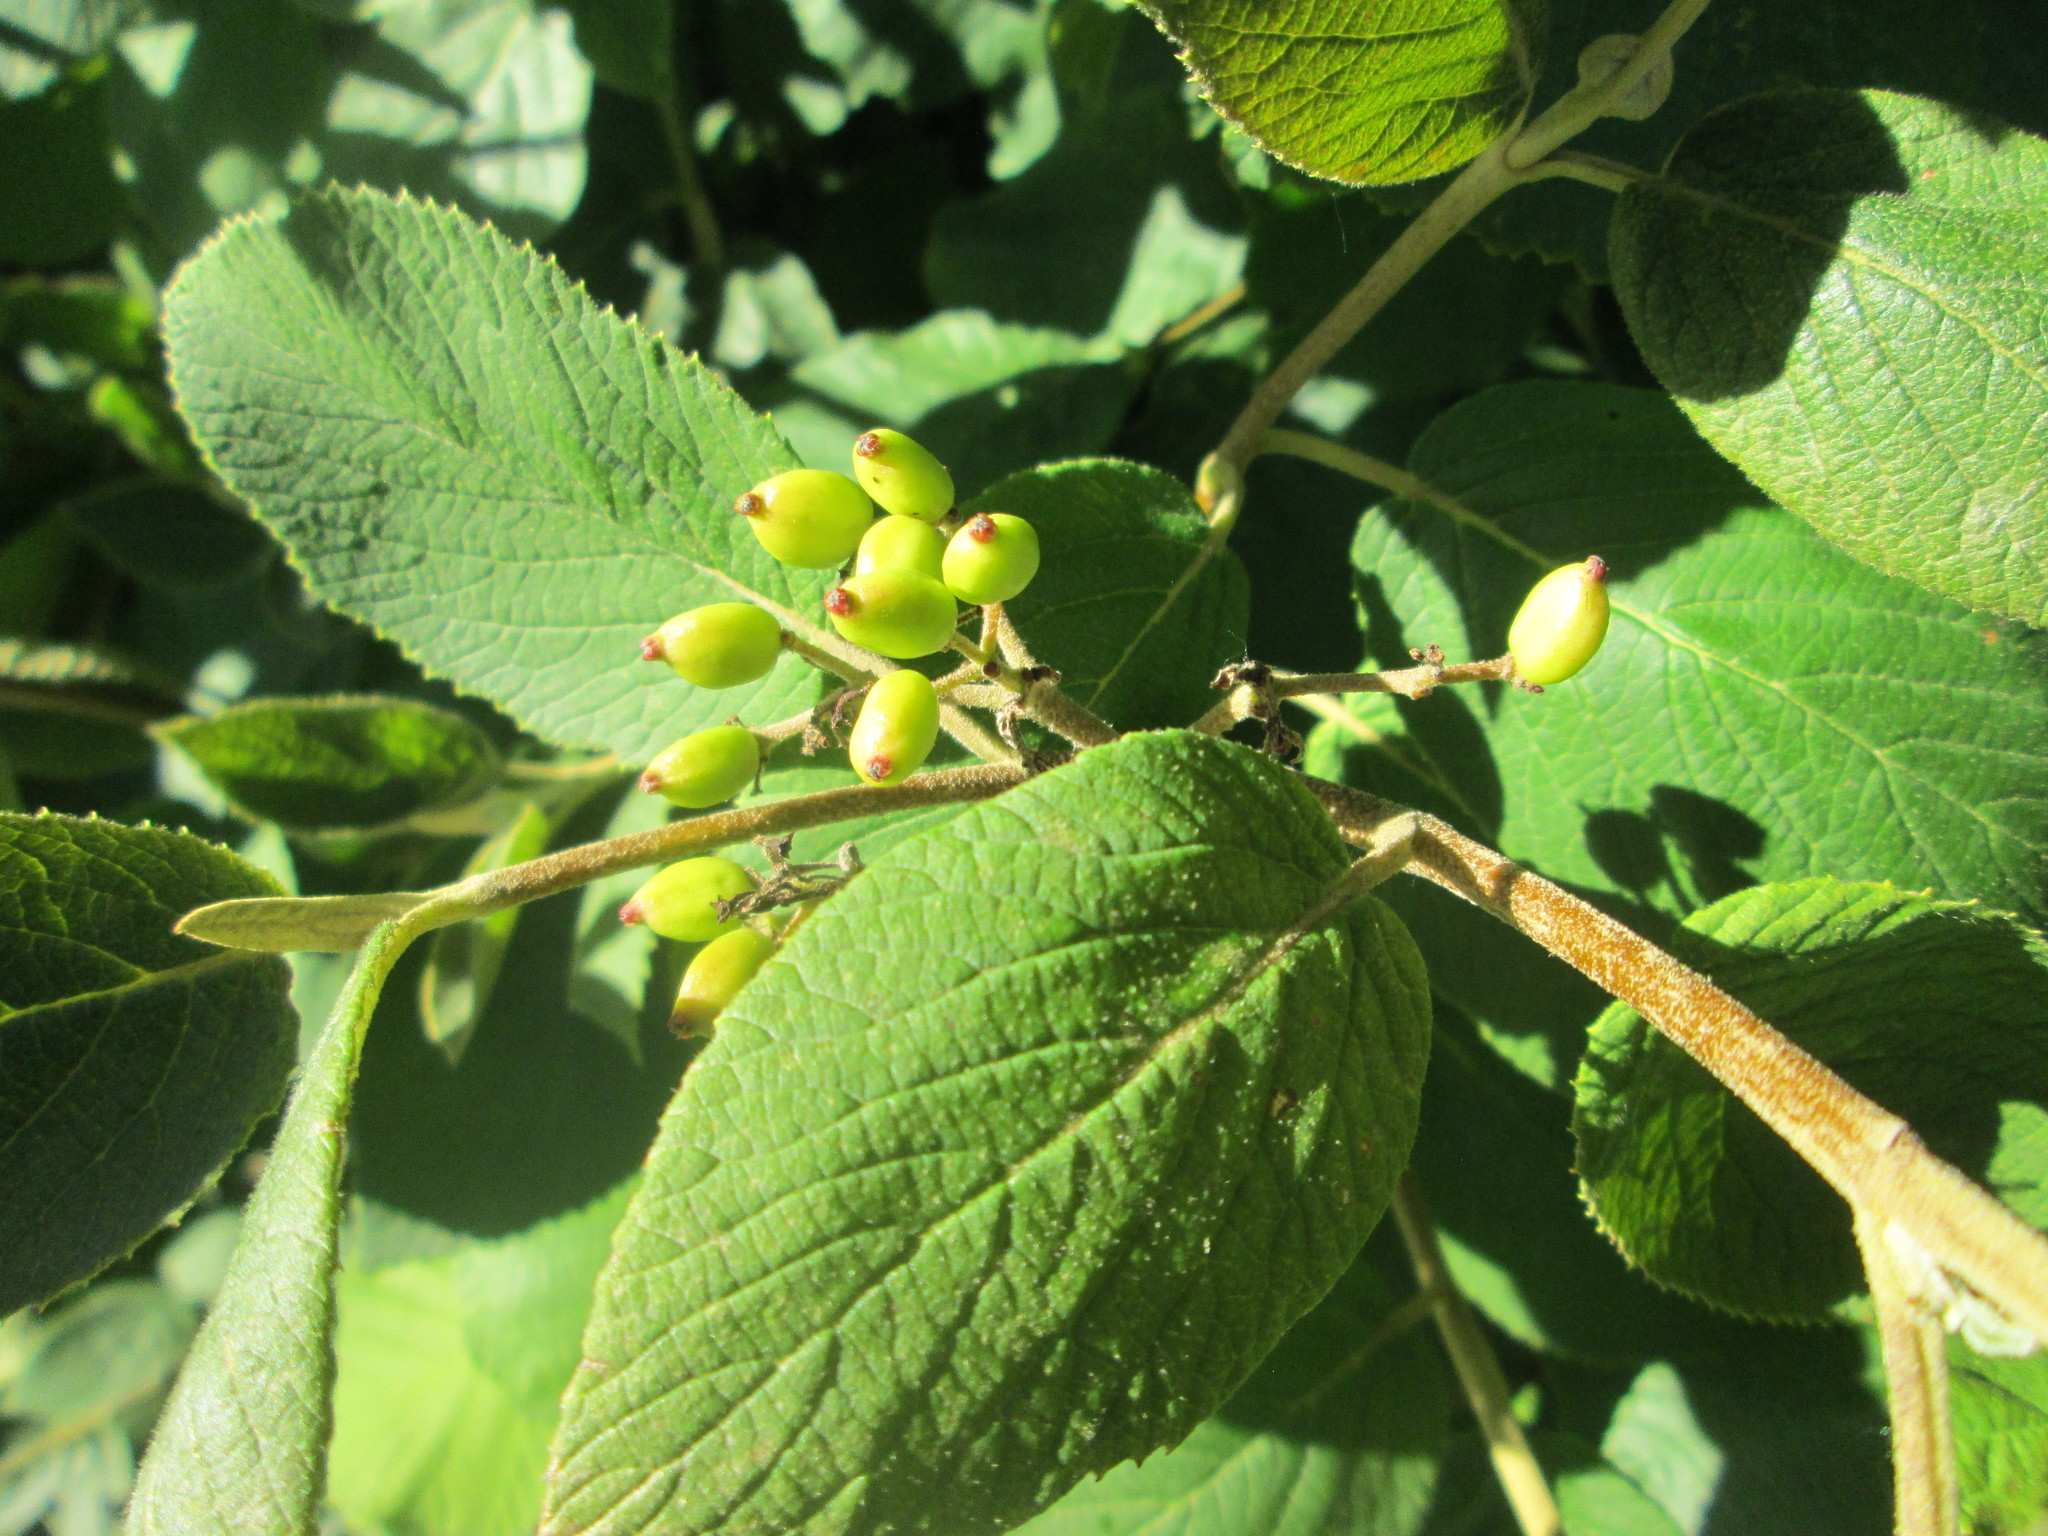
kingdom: Plantae
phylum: Tracheophyta
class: Magnoliopsida
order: Dipsacales
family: Viburnaceae
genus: Viburnum
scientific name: Viburnum lantana
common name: Wayfaring tree
